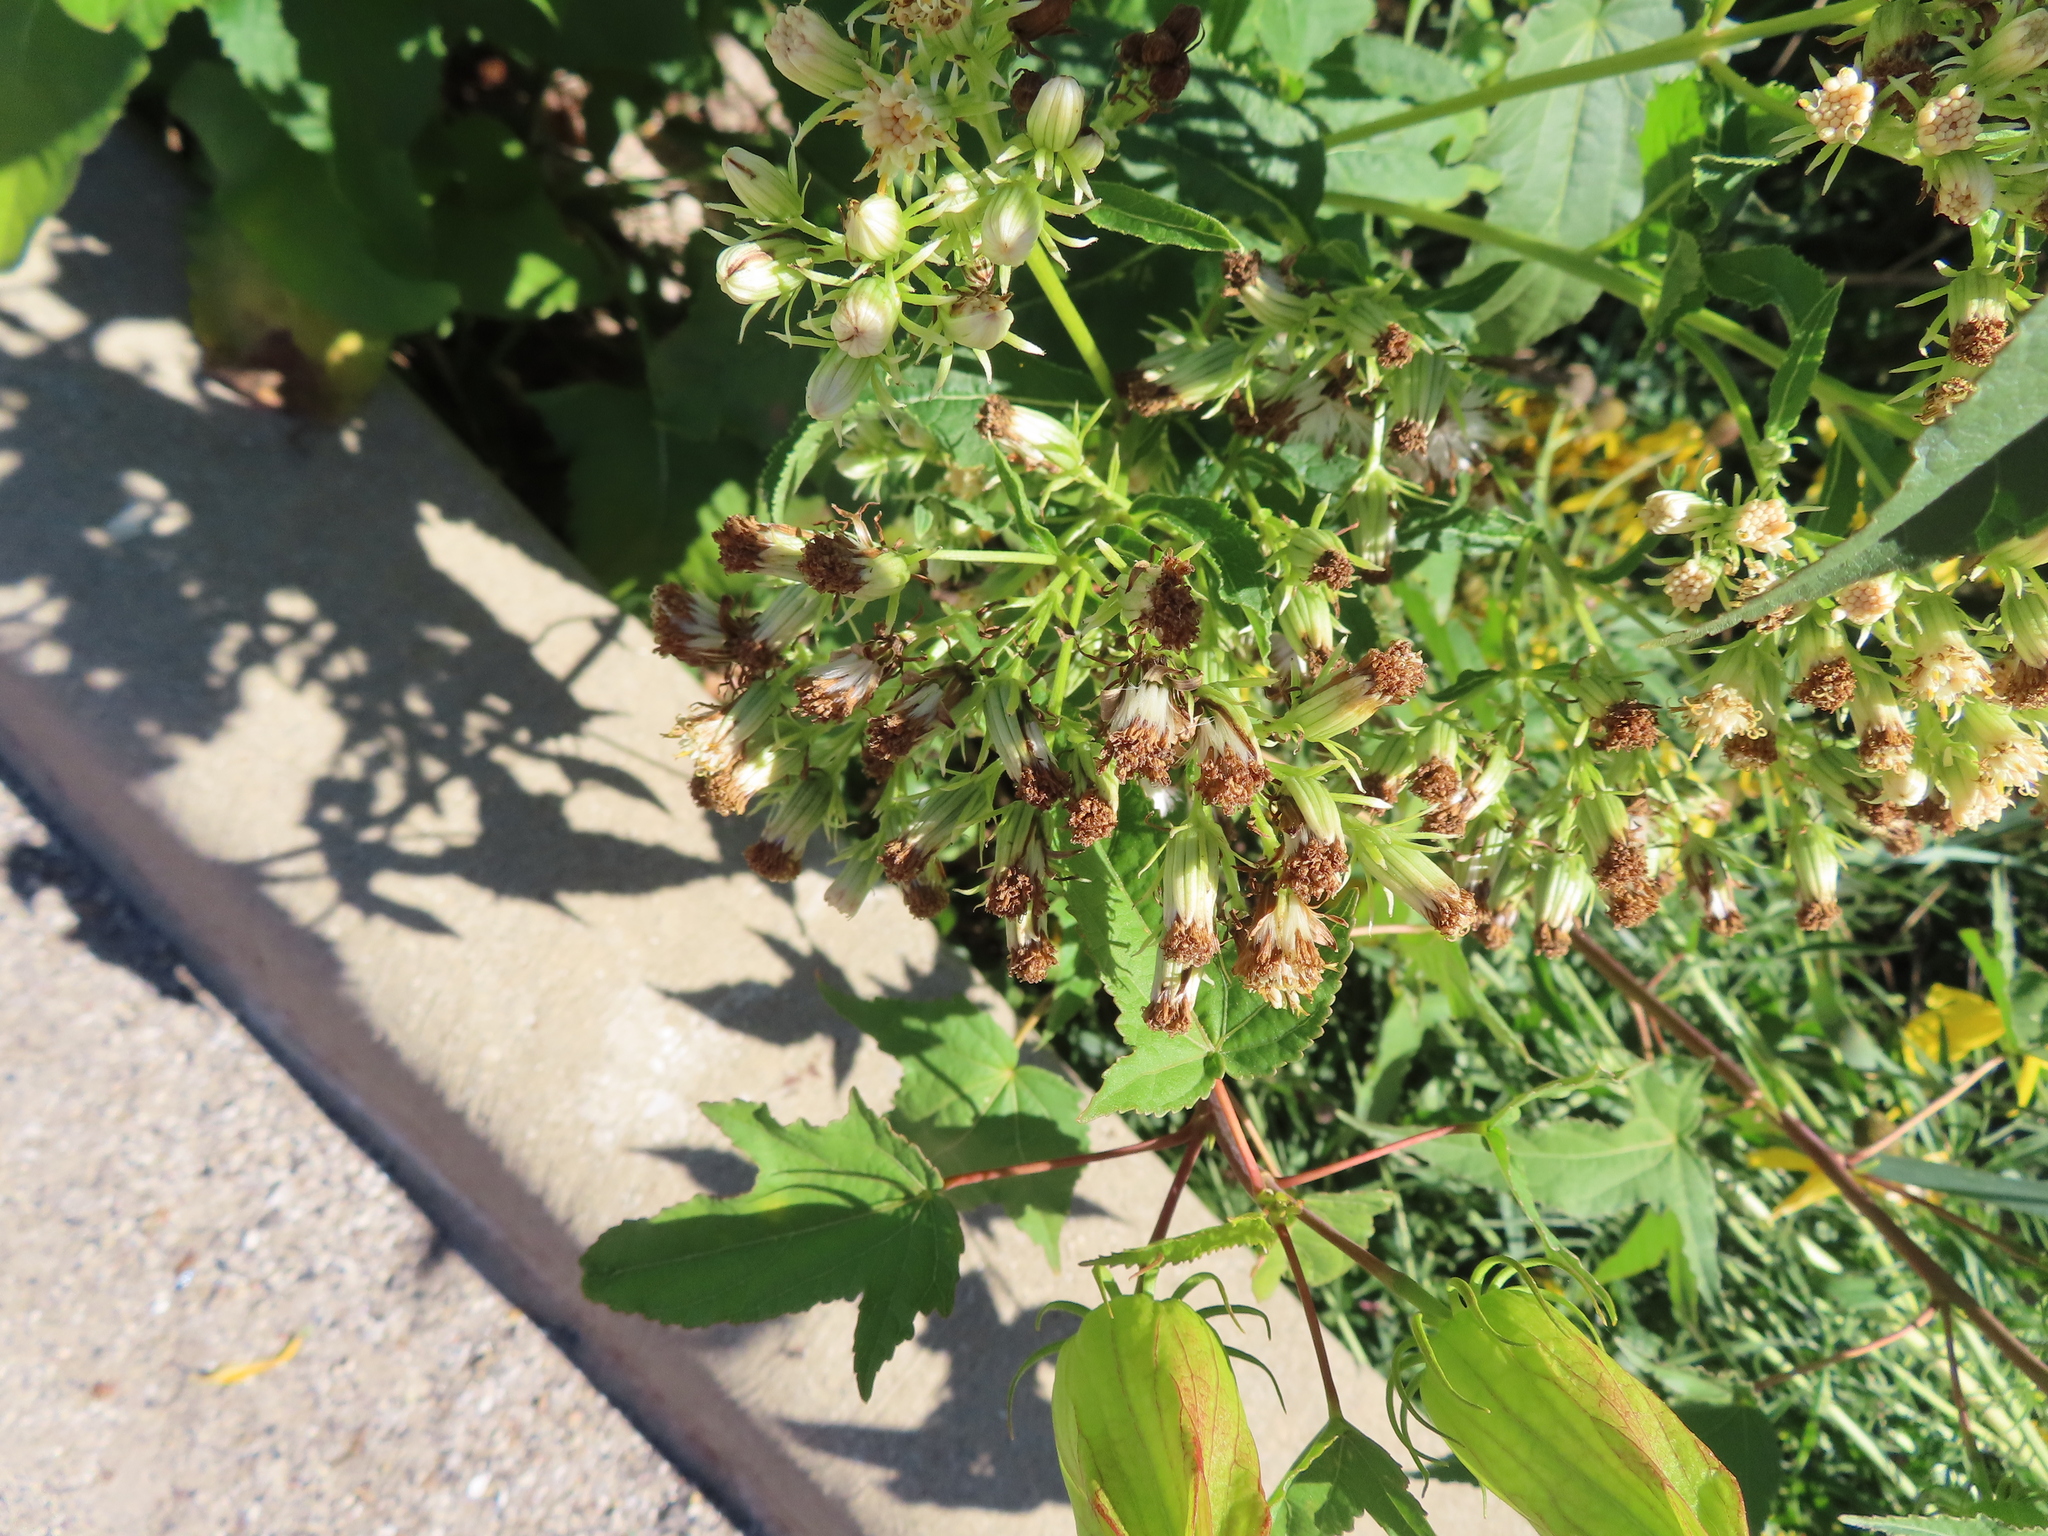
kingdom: Plantae
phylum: Tracheophyta
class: Magnoliopsida
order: Asterales
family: Asteraceae
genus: Hasteola
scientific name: Hasteola suaveolens
